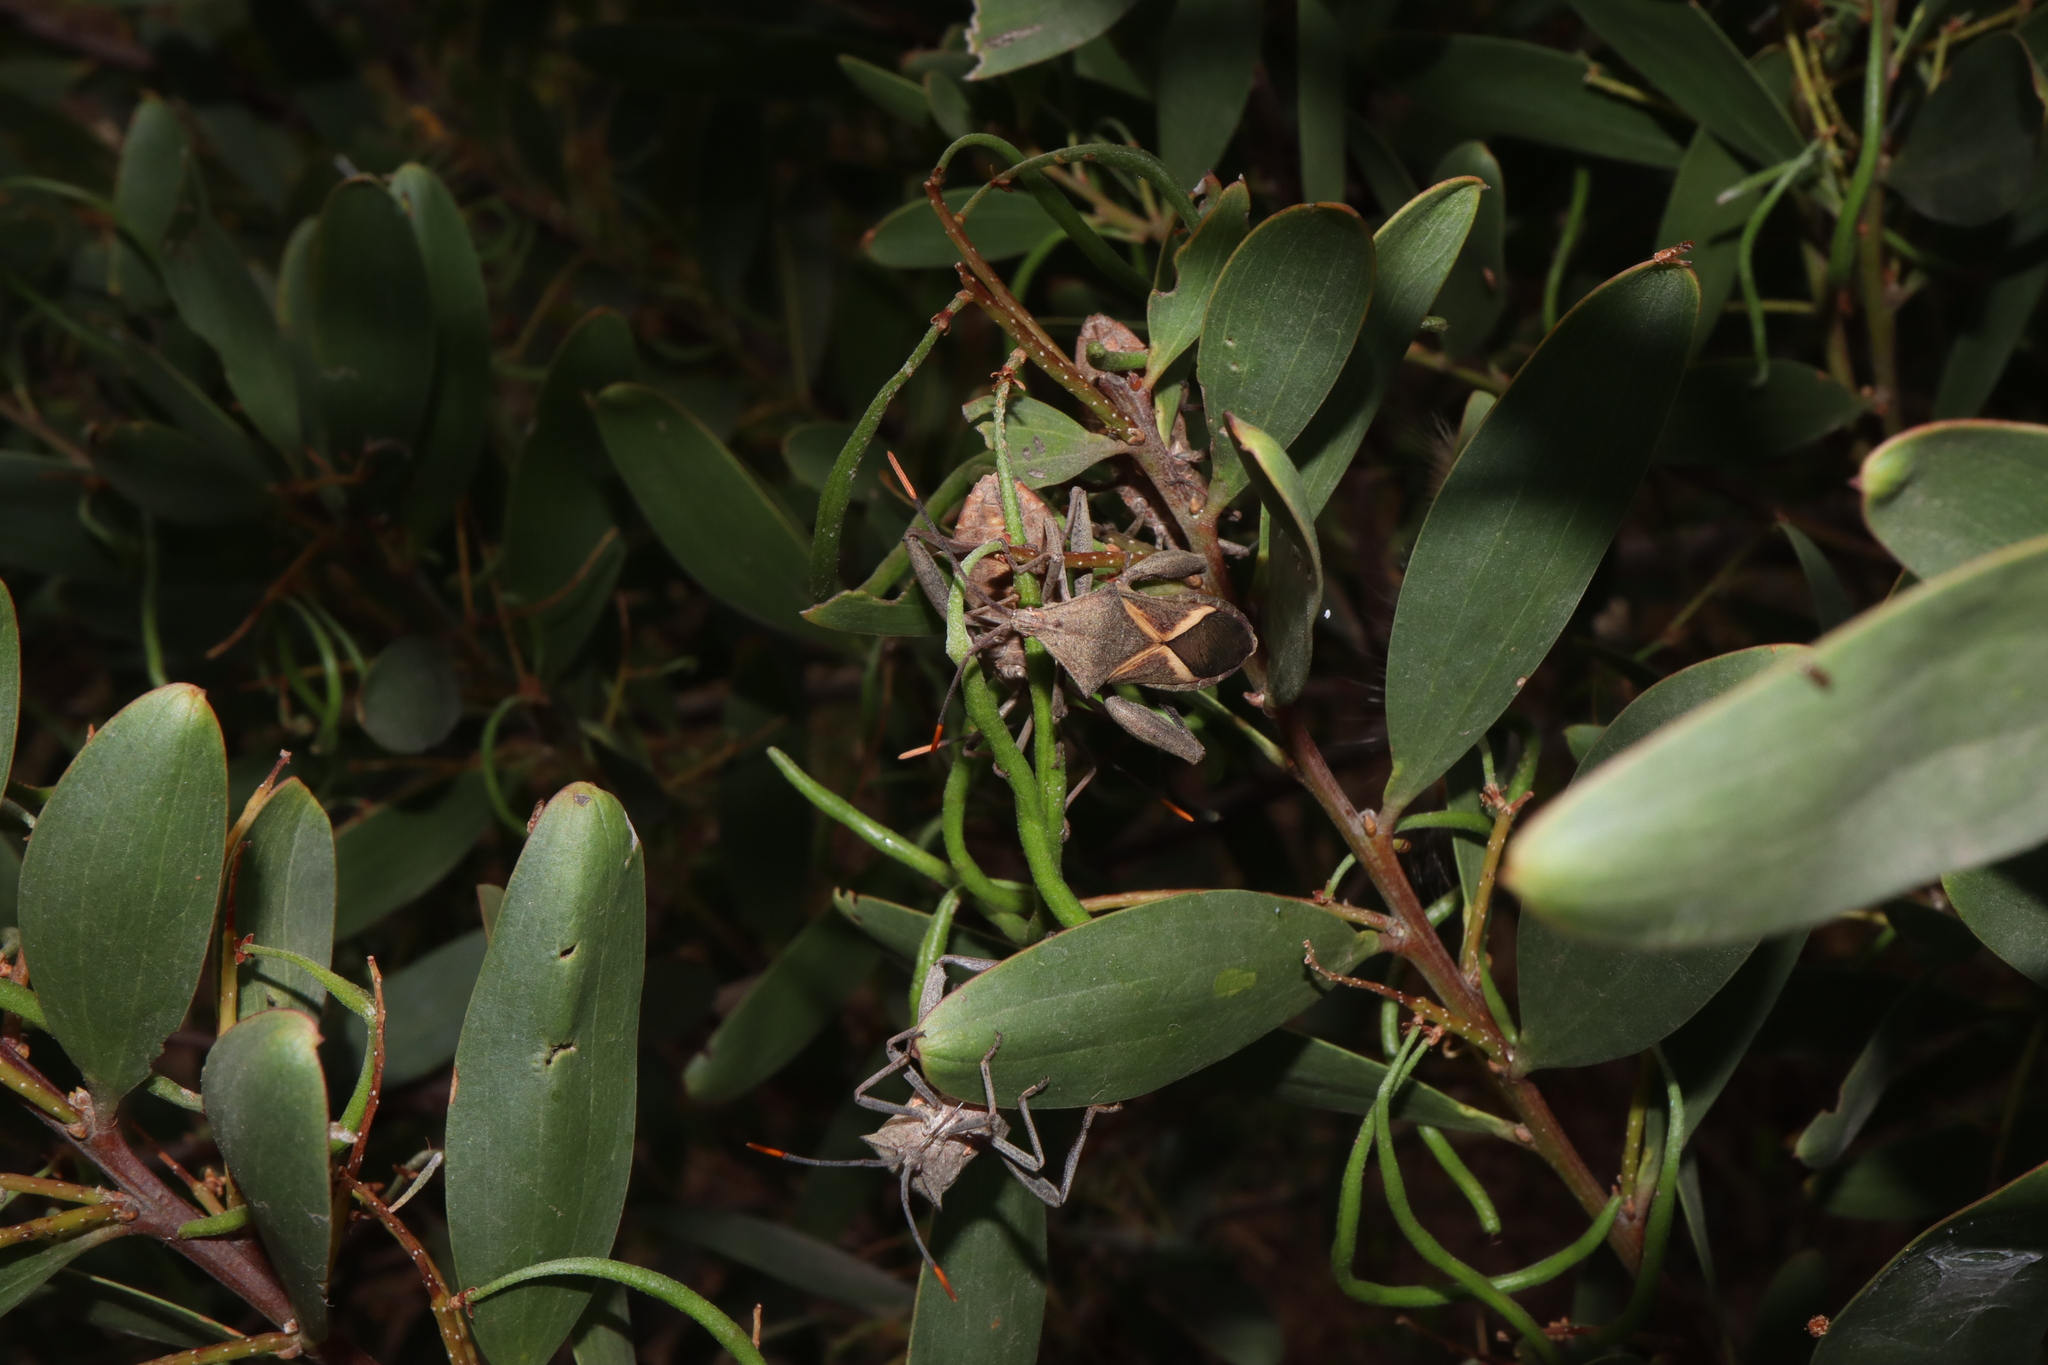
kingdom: Animalia
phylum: Arthropoda
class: Insecta
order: Hemiptera
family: Coreidae
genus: Mictis
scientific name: Mictis profana
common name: Crusader bug
